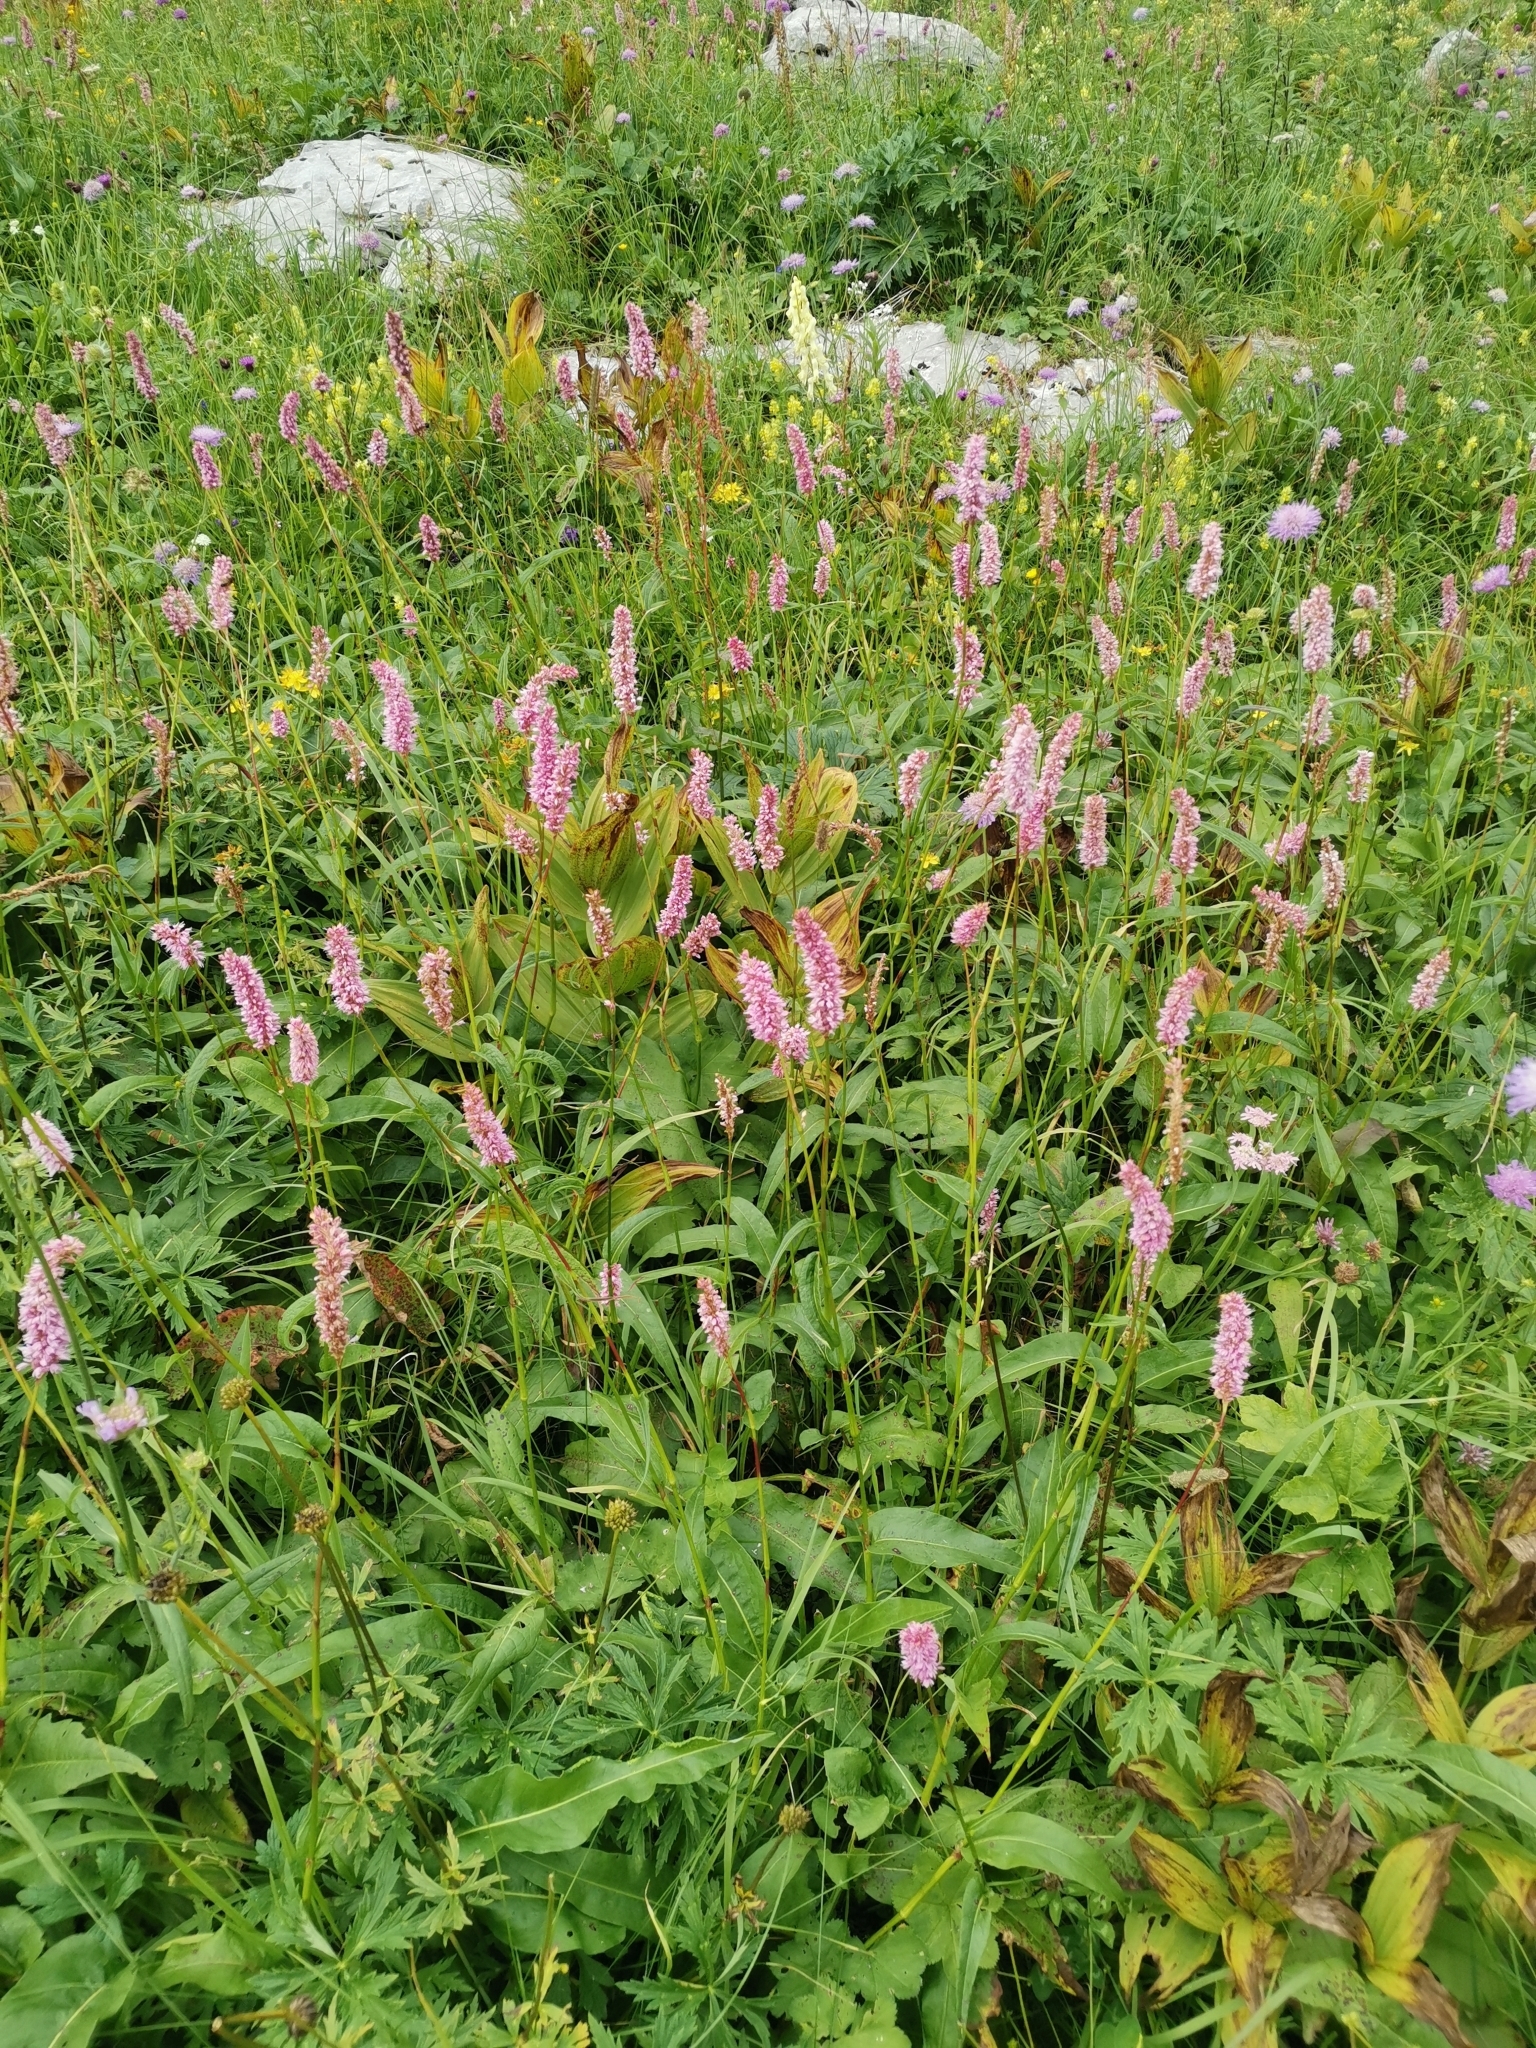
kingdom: Plantae
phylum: Tracheophyta
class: Magnoliopsida
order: Caryophyllales
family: Polygonaceae
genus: Bistorta
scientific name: Bistorta officinalis
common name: Common bistort
